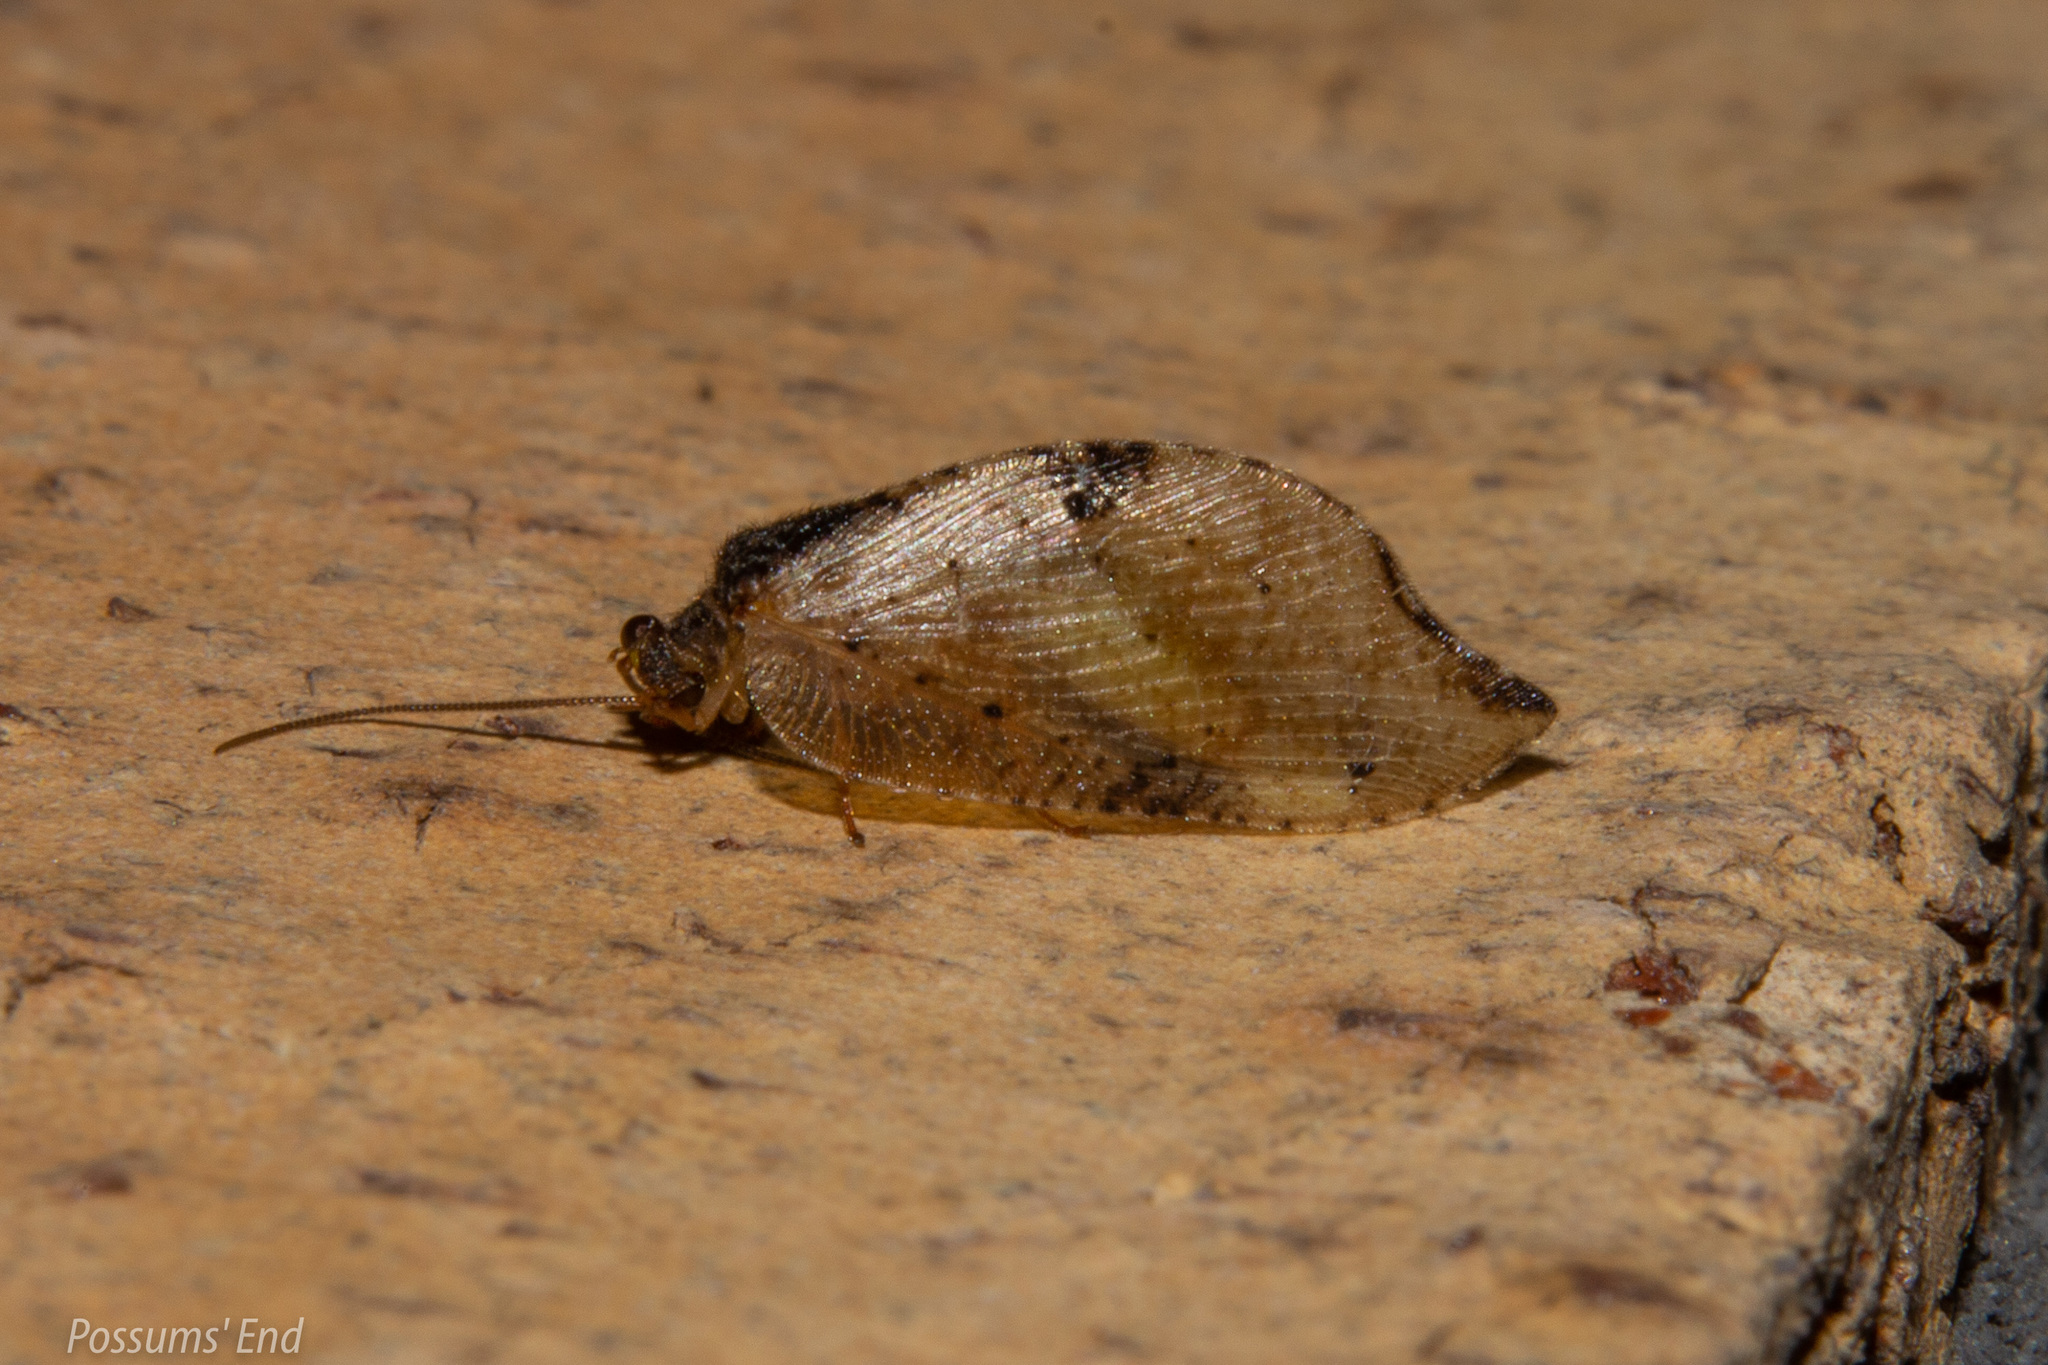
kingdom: Animalia
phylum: Arthropoda
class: Insecta
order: Neuroptera
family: Hemerobiidae
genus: Drepanacra
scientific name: Drepanacra binocula
